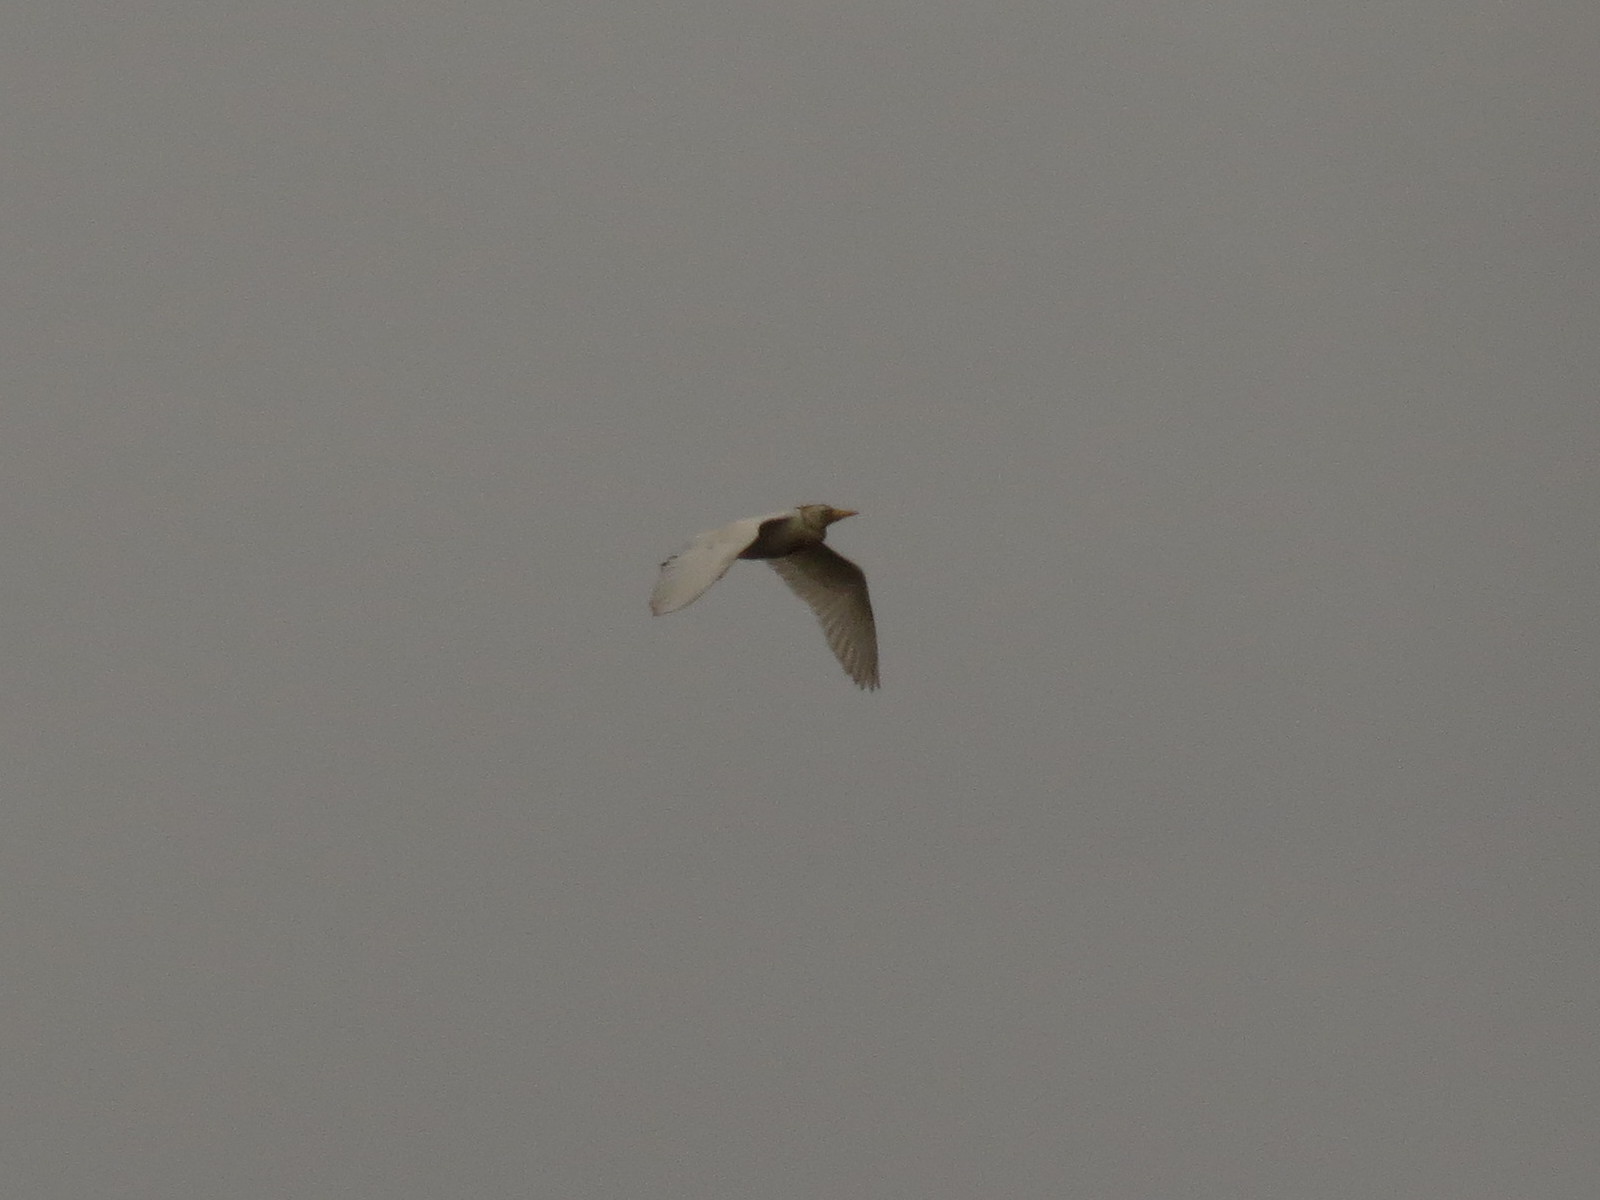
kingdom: Animalia
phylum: Chordata
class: Aves
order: Pelecaniformes
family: Ardeidae
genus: Bubulcus
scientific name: Bubulcus ibis
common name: Cattle egret
